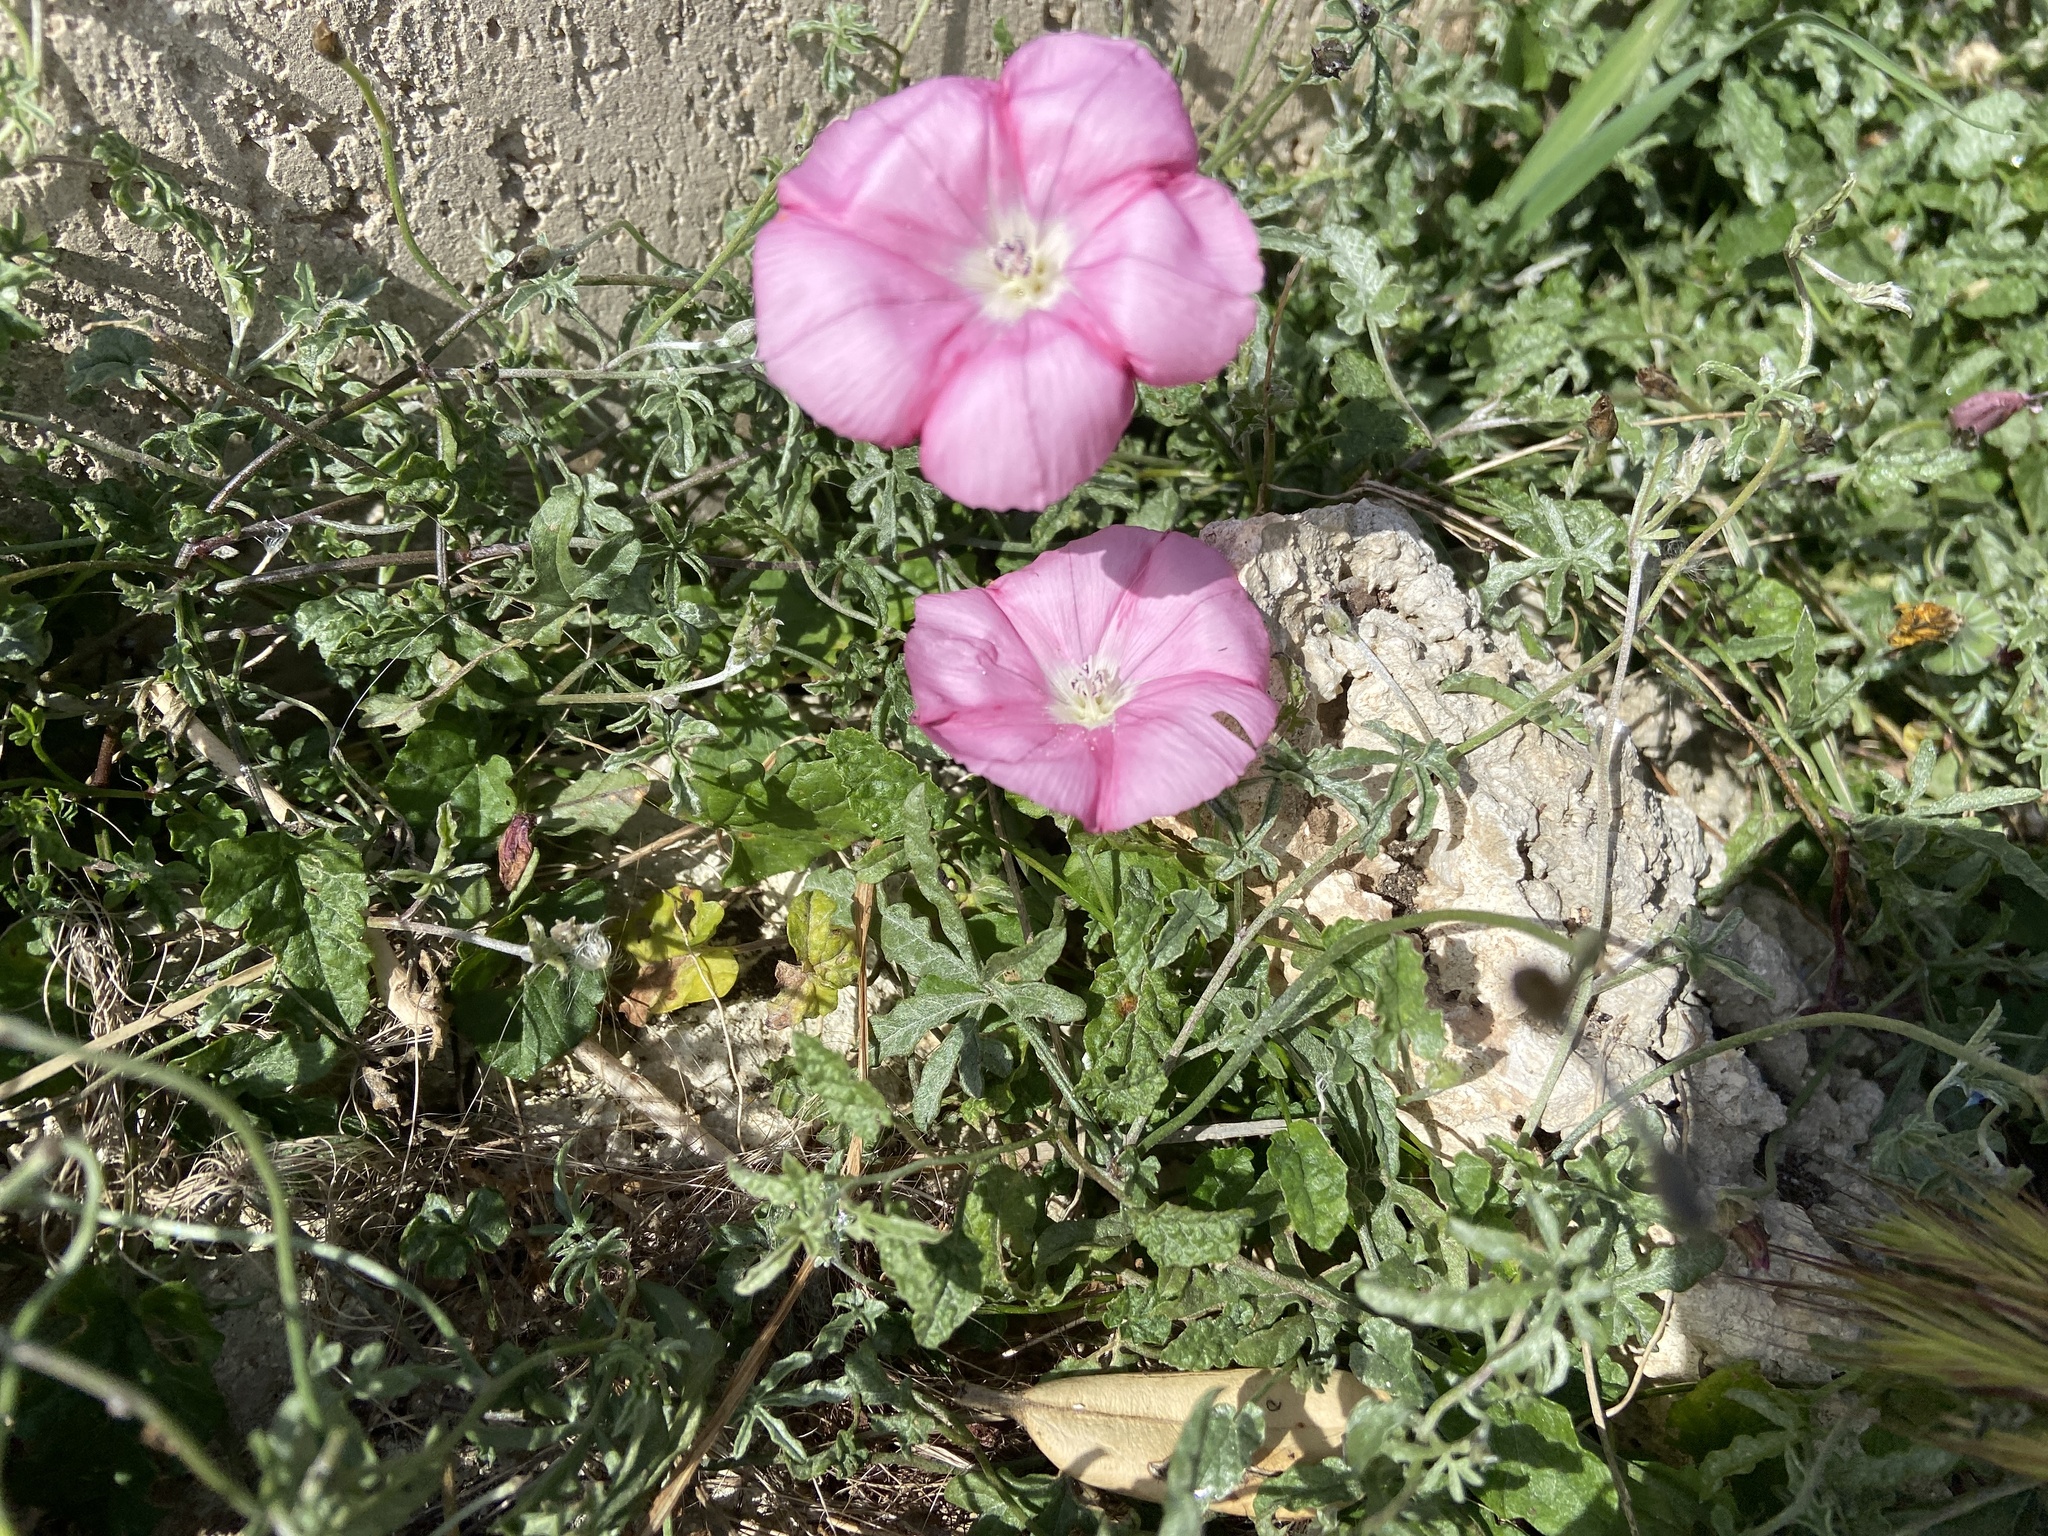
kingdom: Plantae
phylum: Tracheophyta
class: Magnoliopsida
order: Solanales
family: Convolvulaceae
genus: Convolvulus
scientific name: Convolvulus elegantissimus
